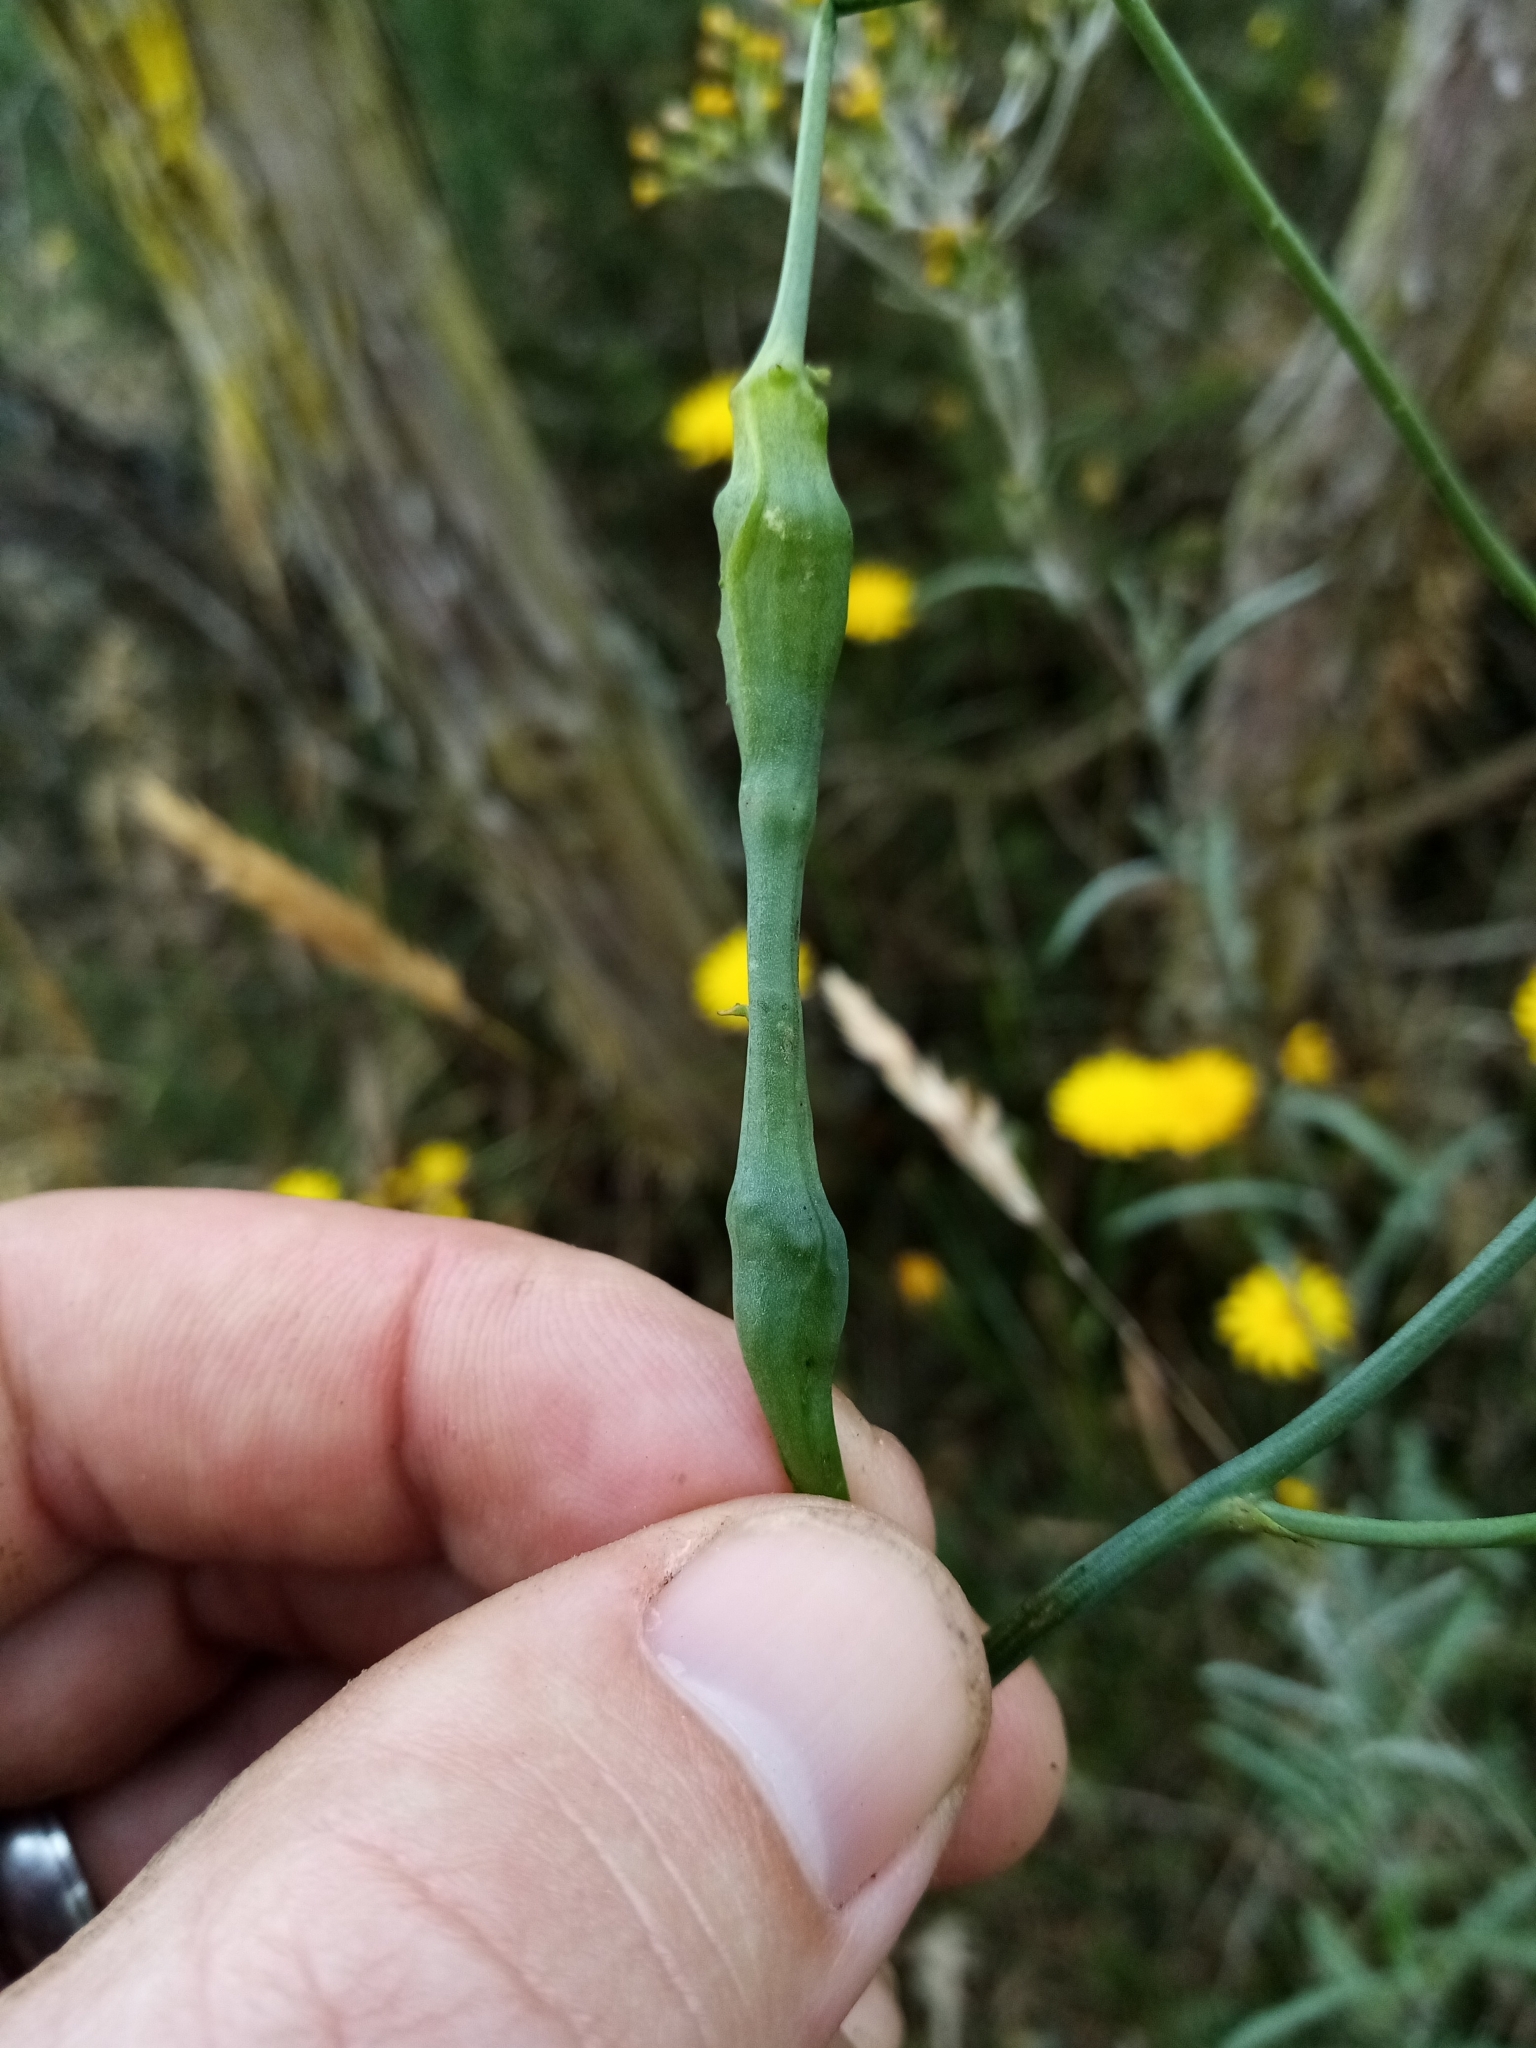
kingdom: Animalia
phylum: Arthropoda
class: Insecta
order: Hymenoptera
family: Cynipidae
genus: Phanacis
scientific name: Phanacis hypochoeridis
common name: Gall wasp
